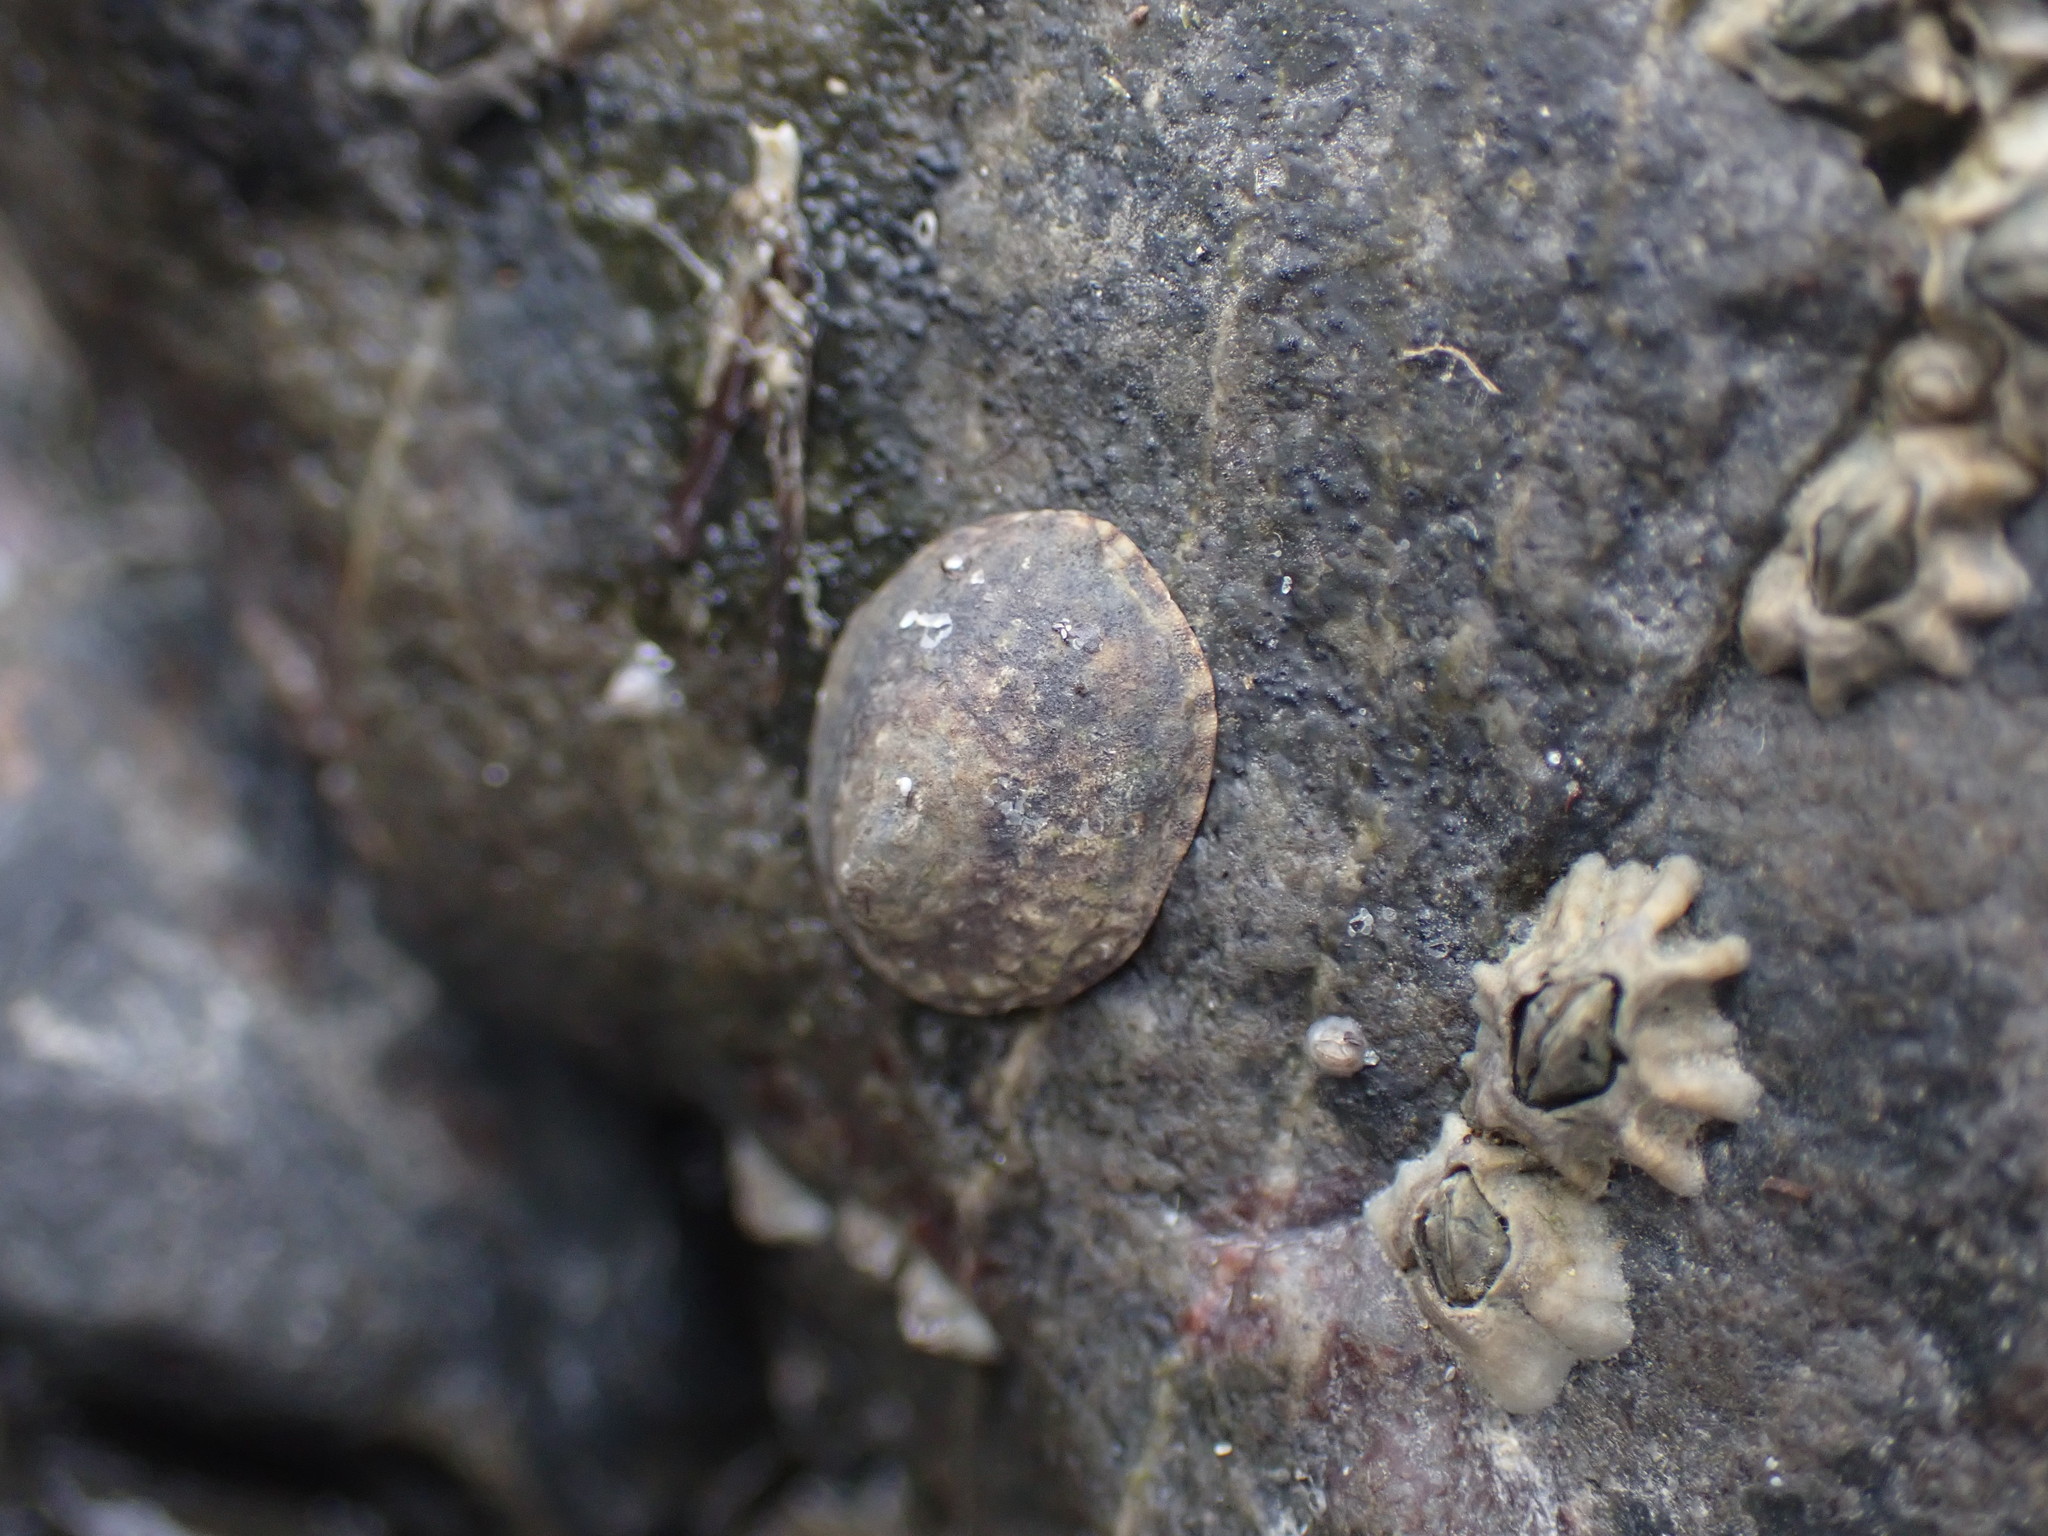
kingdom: Animalia
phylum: Mollusca
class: Gastropoda
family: Lottiidae
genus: Notoacmea
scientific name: Notoacmea potae
